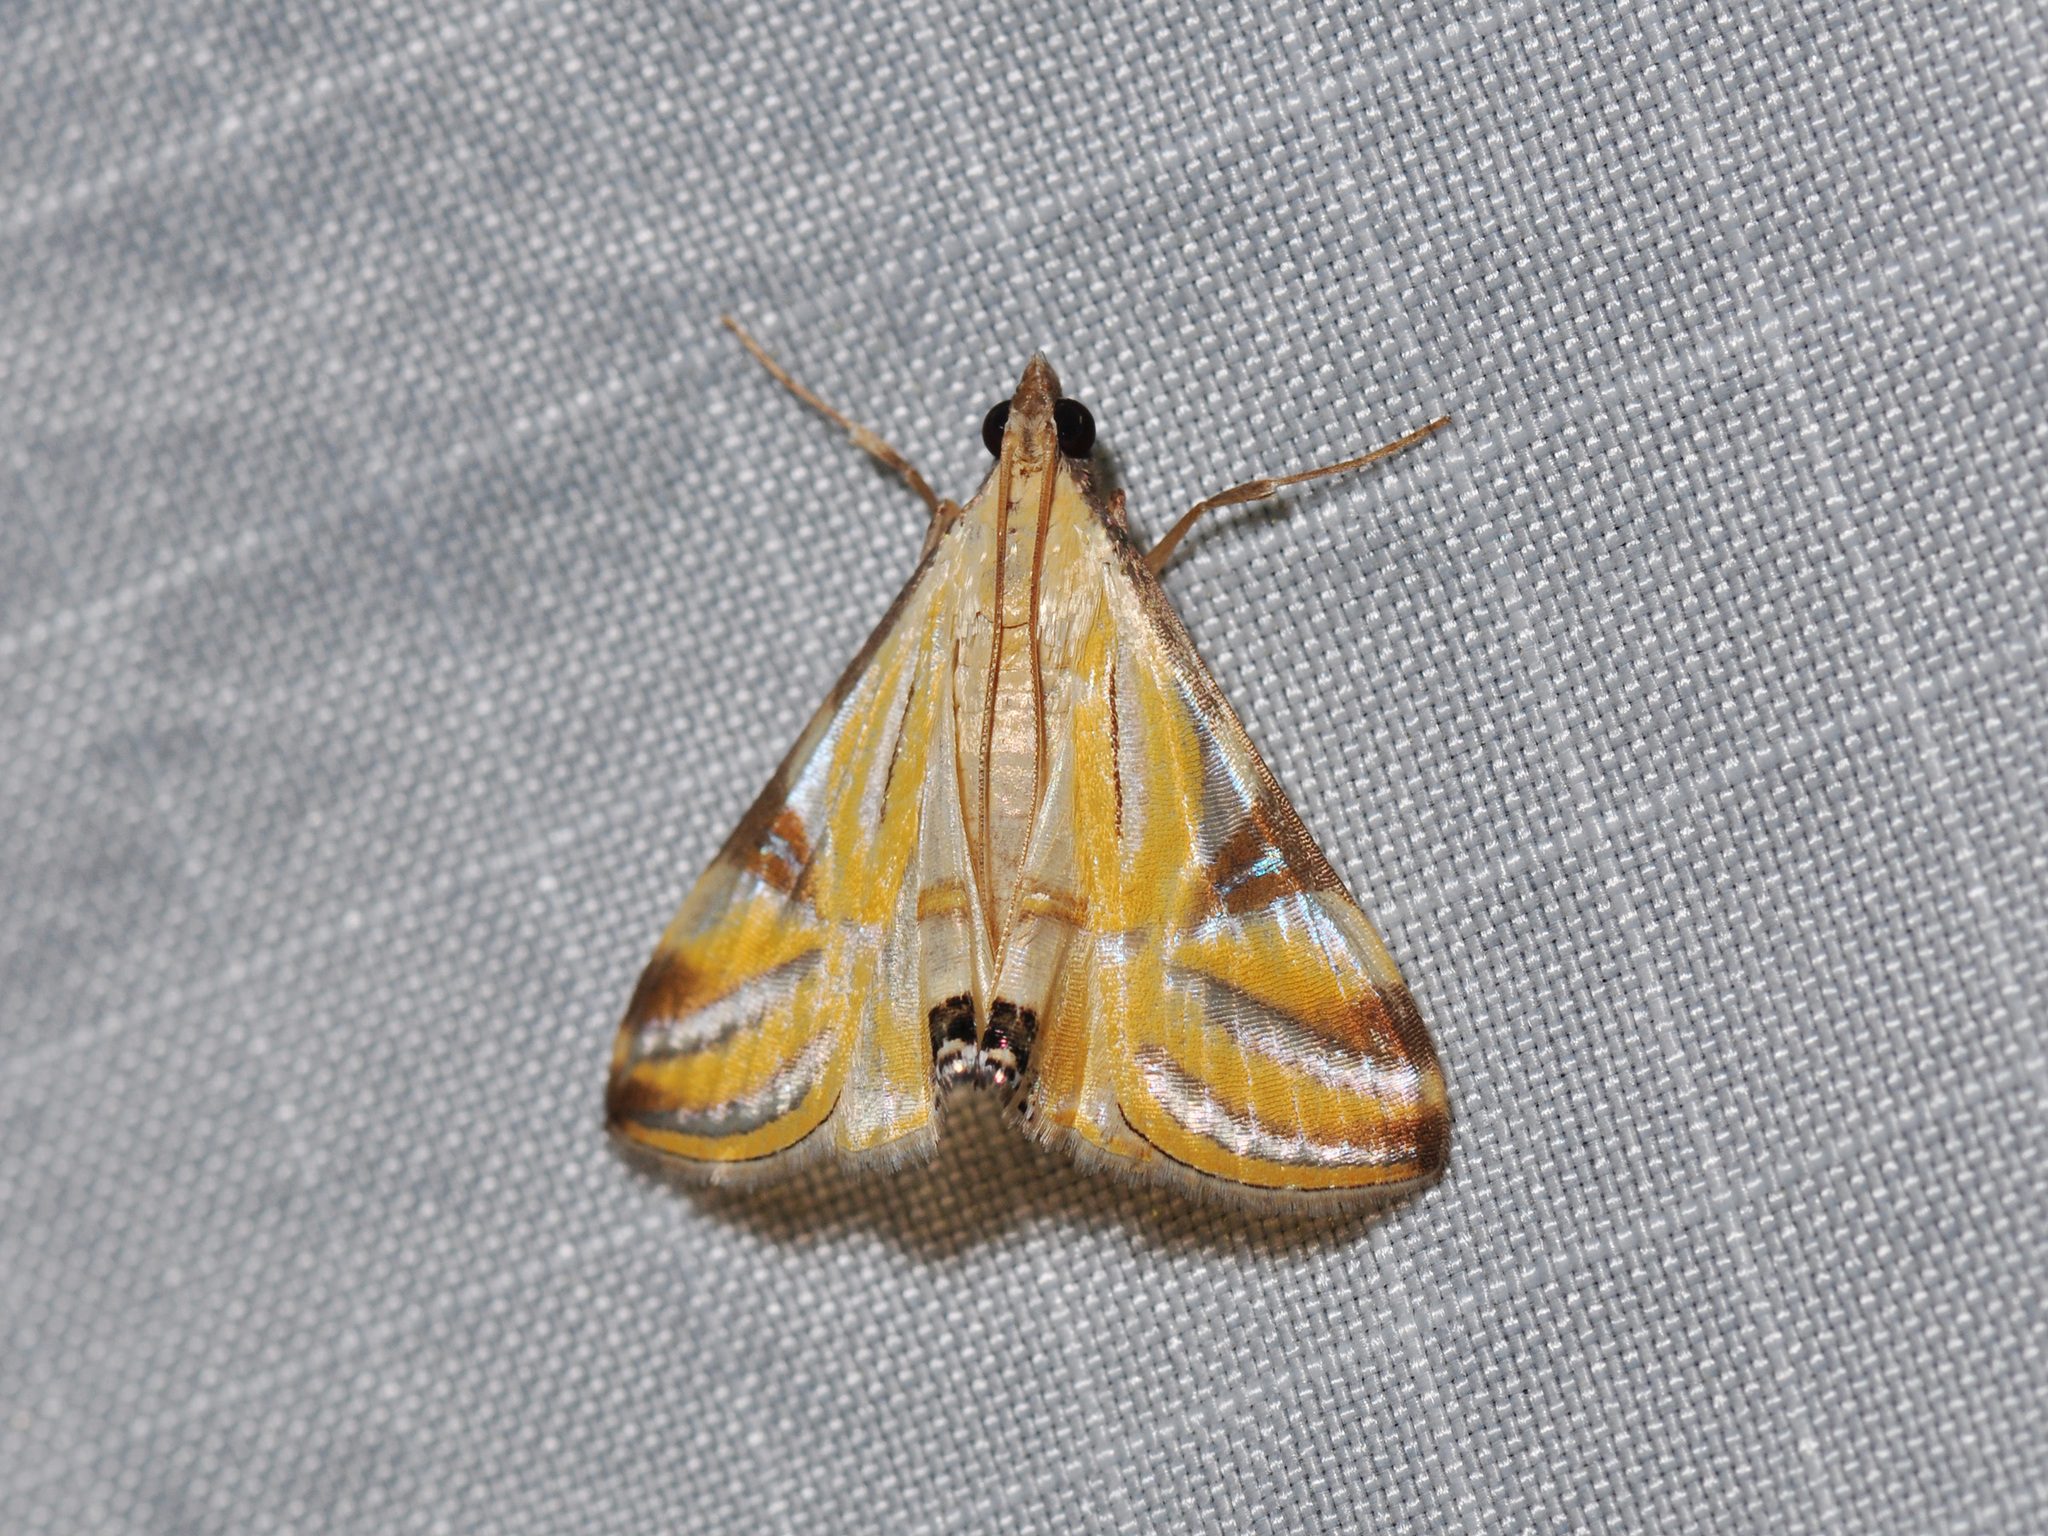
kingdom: Animalia
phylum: Arthropoda
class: Insecta
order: Lepidoptera
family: Crambidae
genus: Talanga
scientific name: Talanga sexpunctalis
